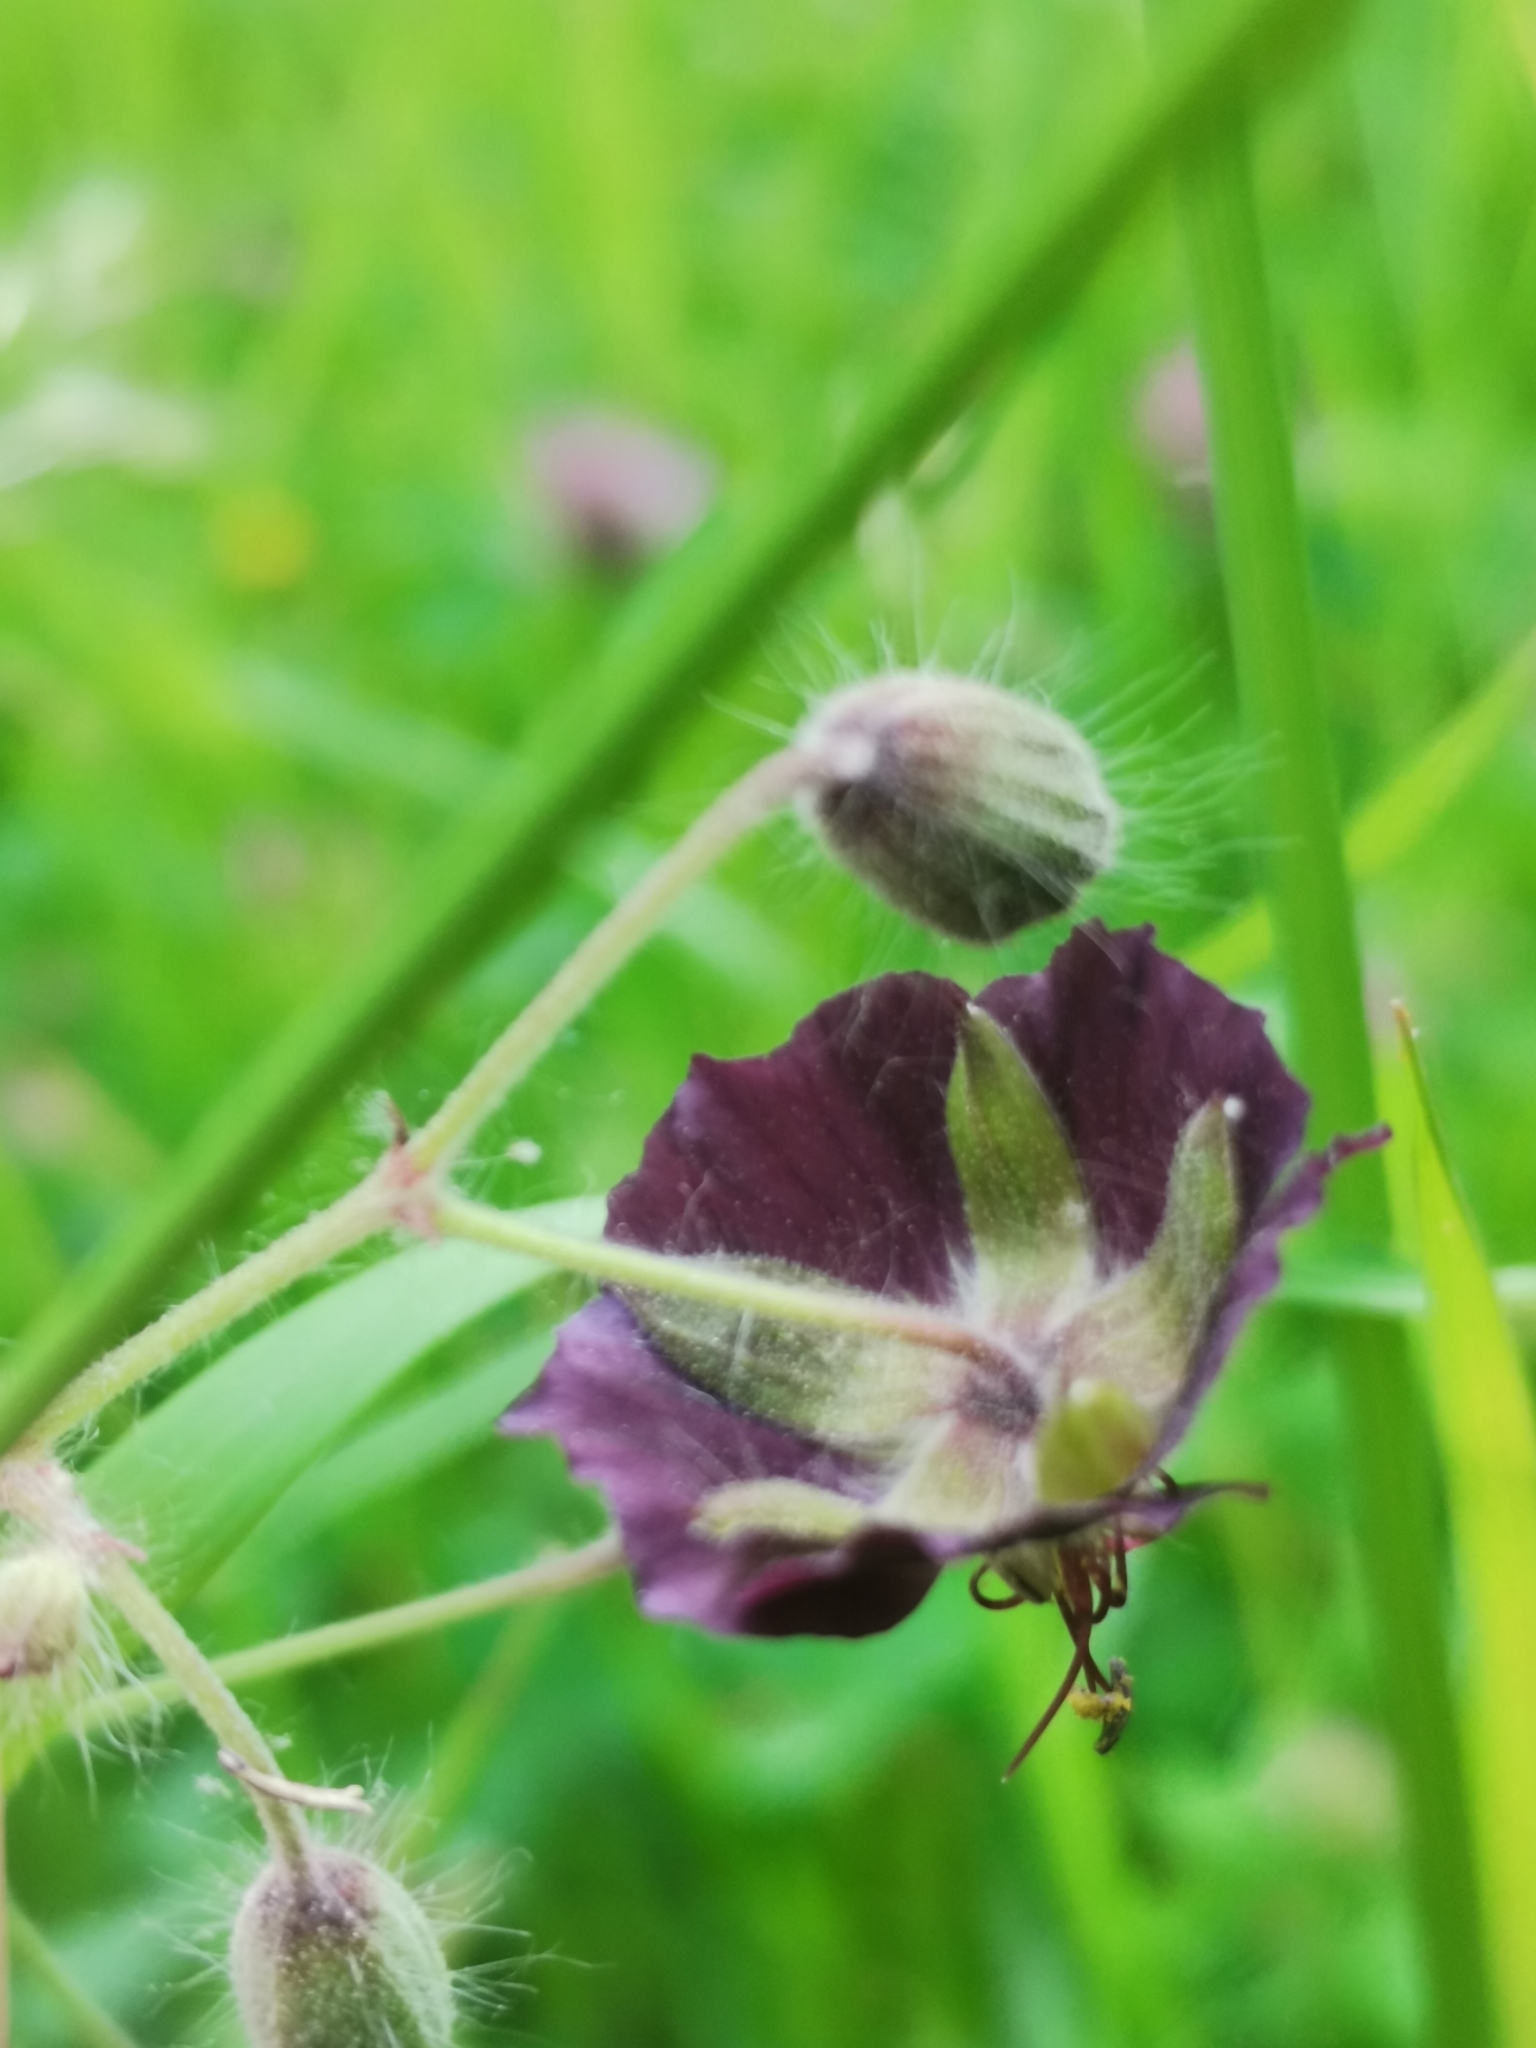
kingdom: Plantae
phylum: Tracheophyta
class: Magnoliopsida
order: Geraniales
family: Geraniaceae
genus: Geranium
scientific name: Geranium phaeum
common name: Dusky crane's-bill
